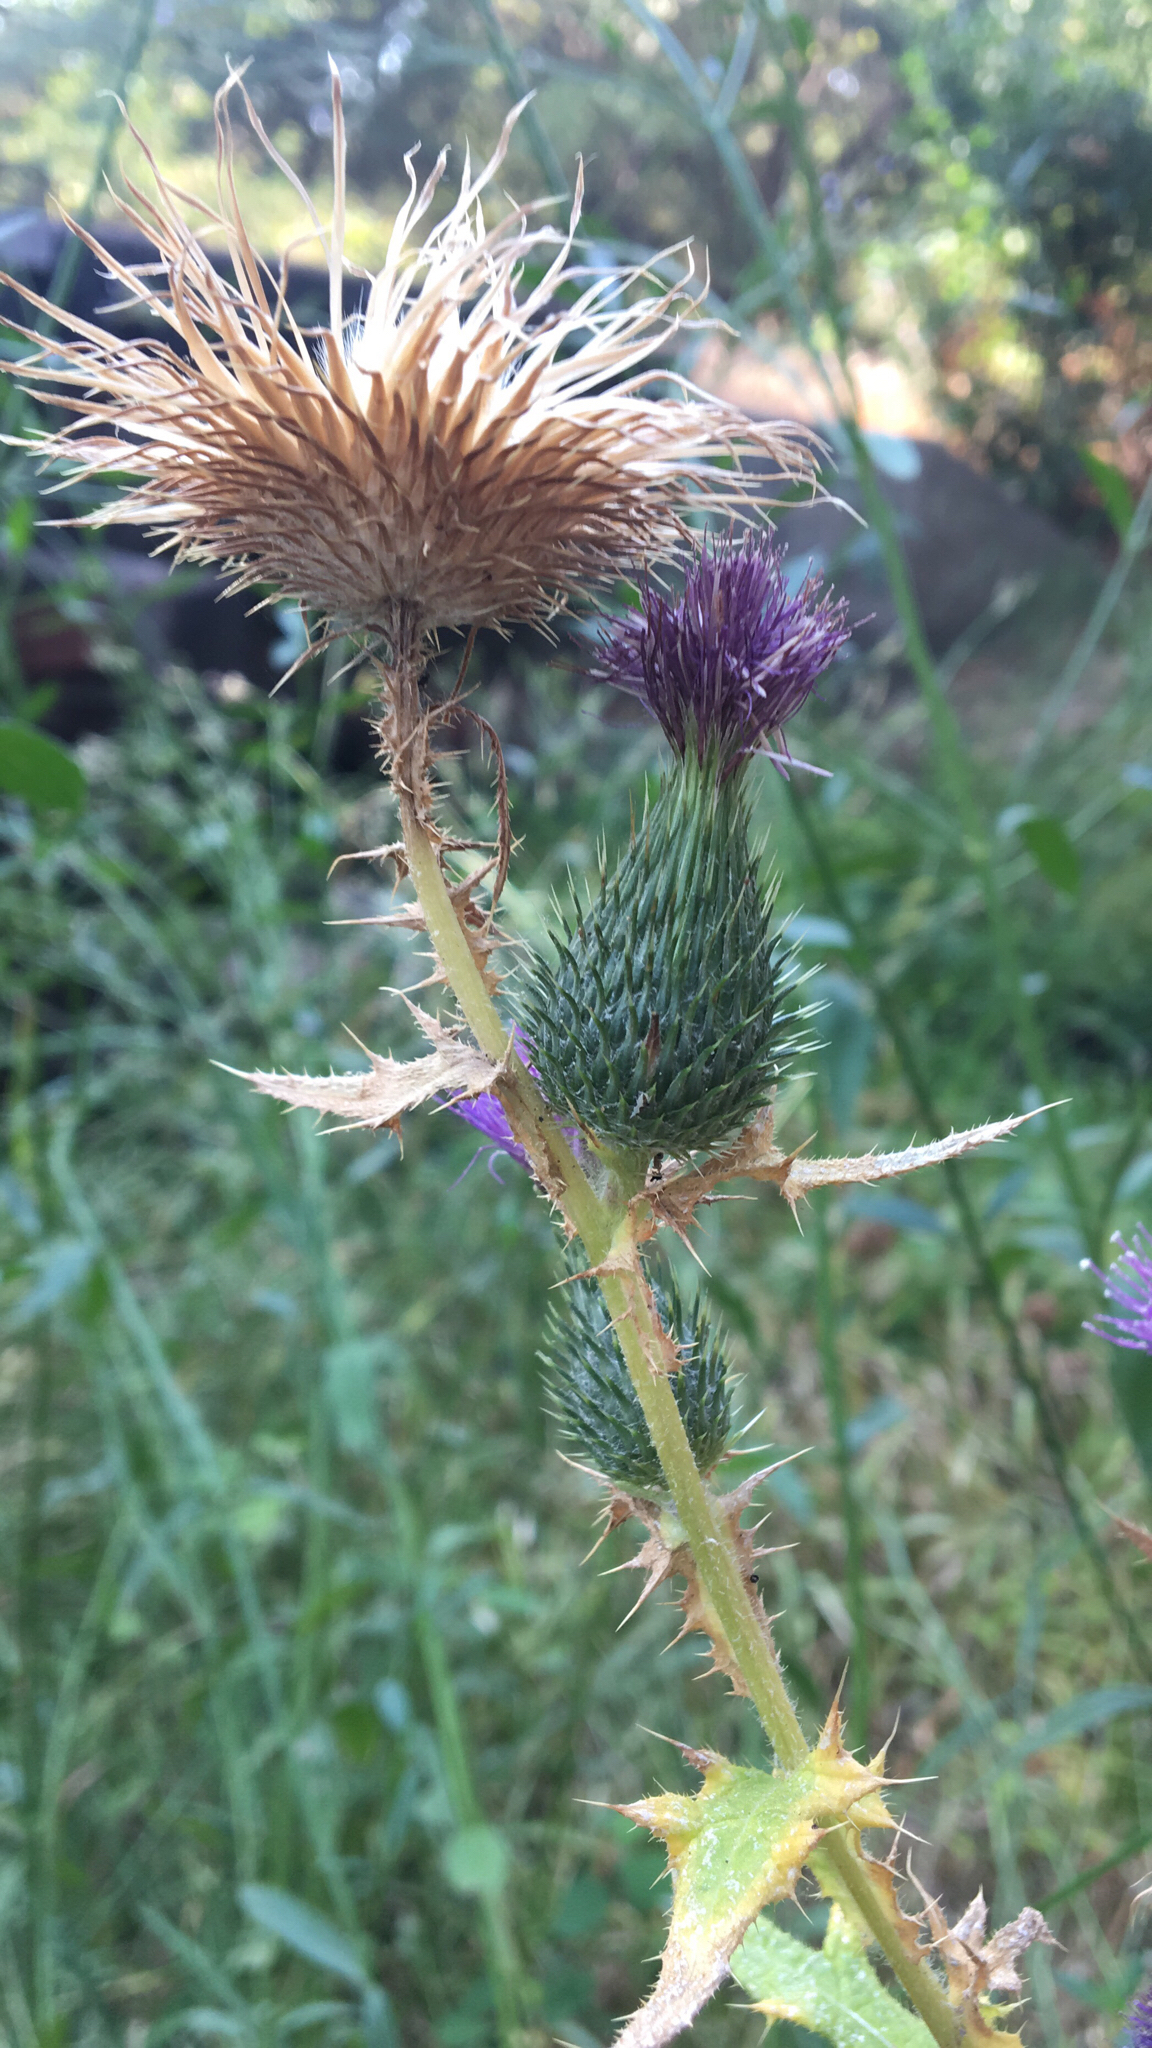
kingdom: Plantae
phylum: Tracheophyta
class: Magnoliopsida
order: Asterales
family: Asteraceae
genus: Cirsium
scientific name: Cirsium vulgare
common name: Bull thistle
